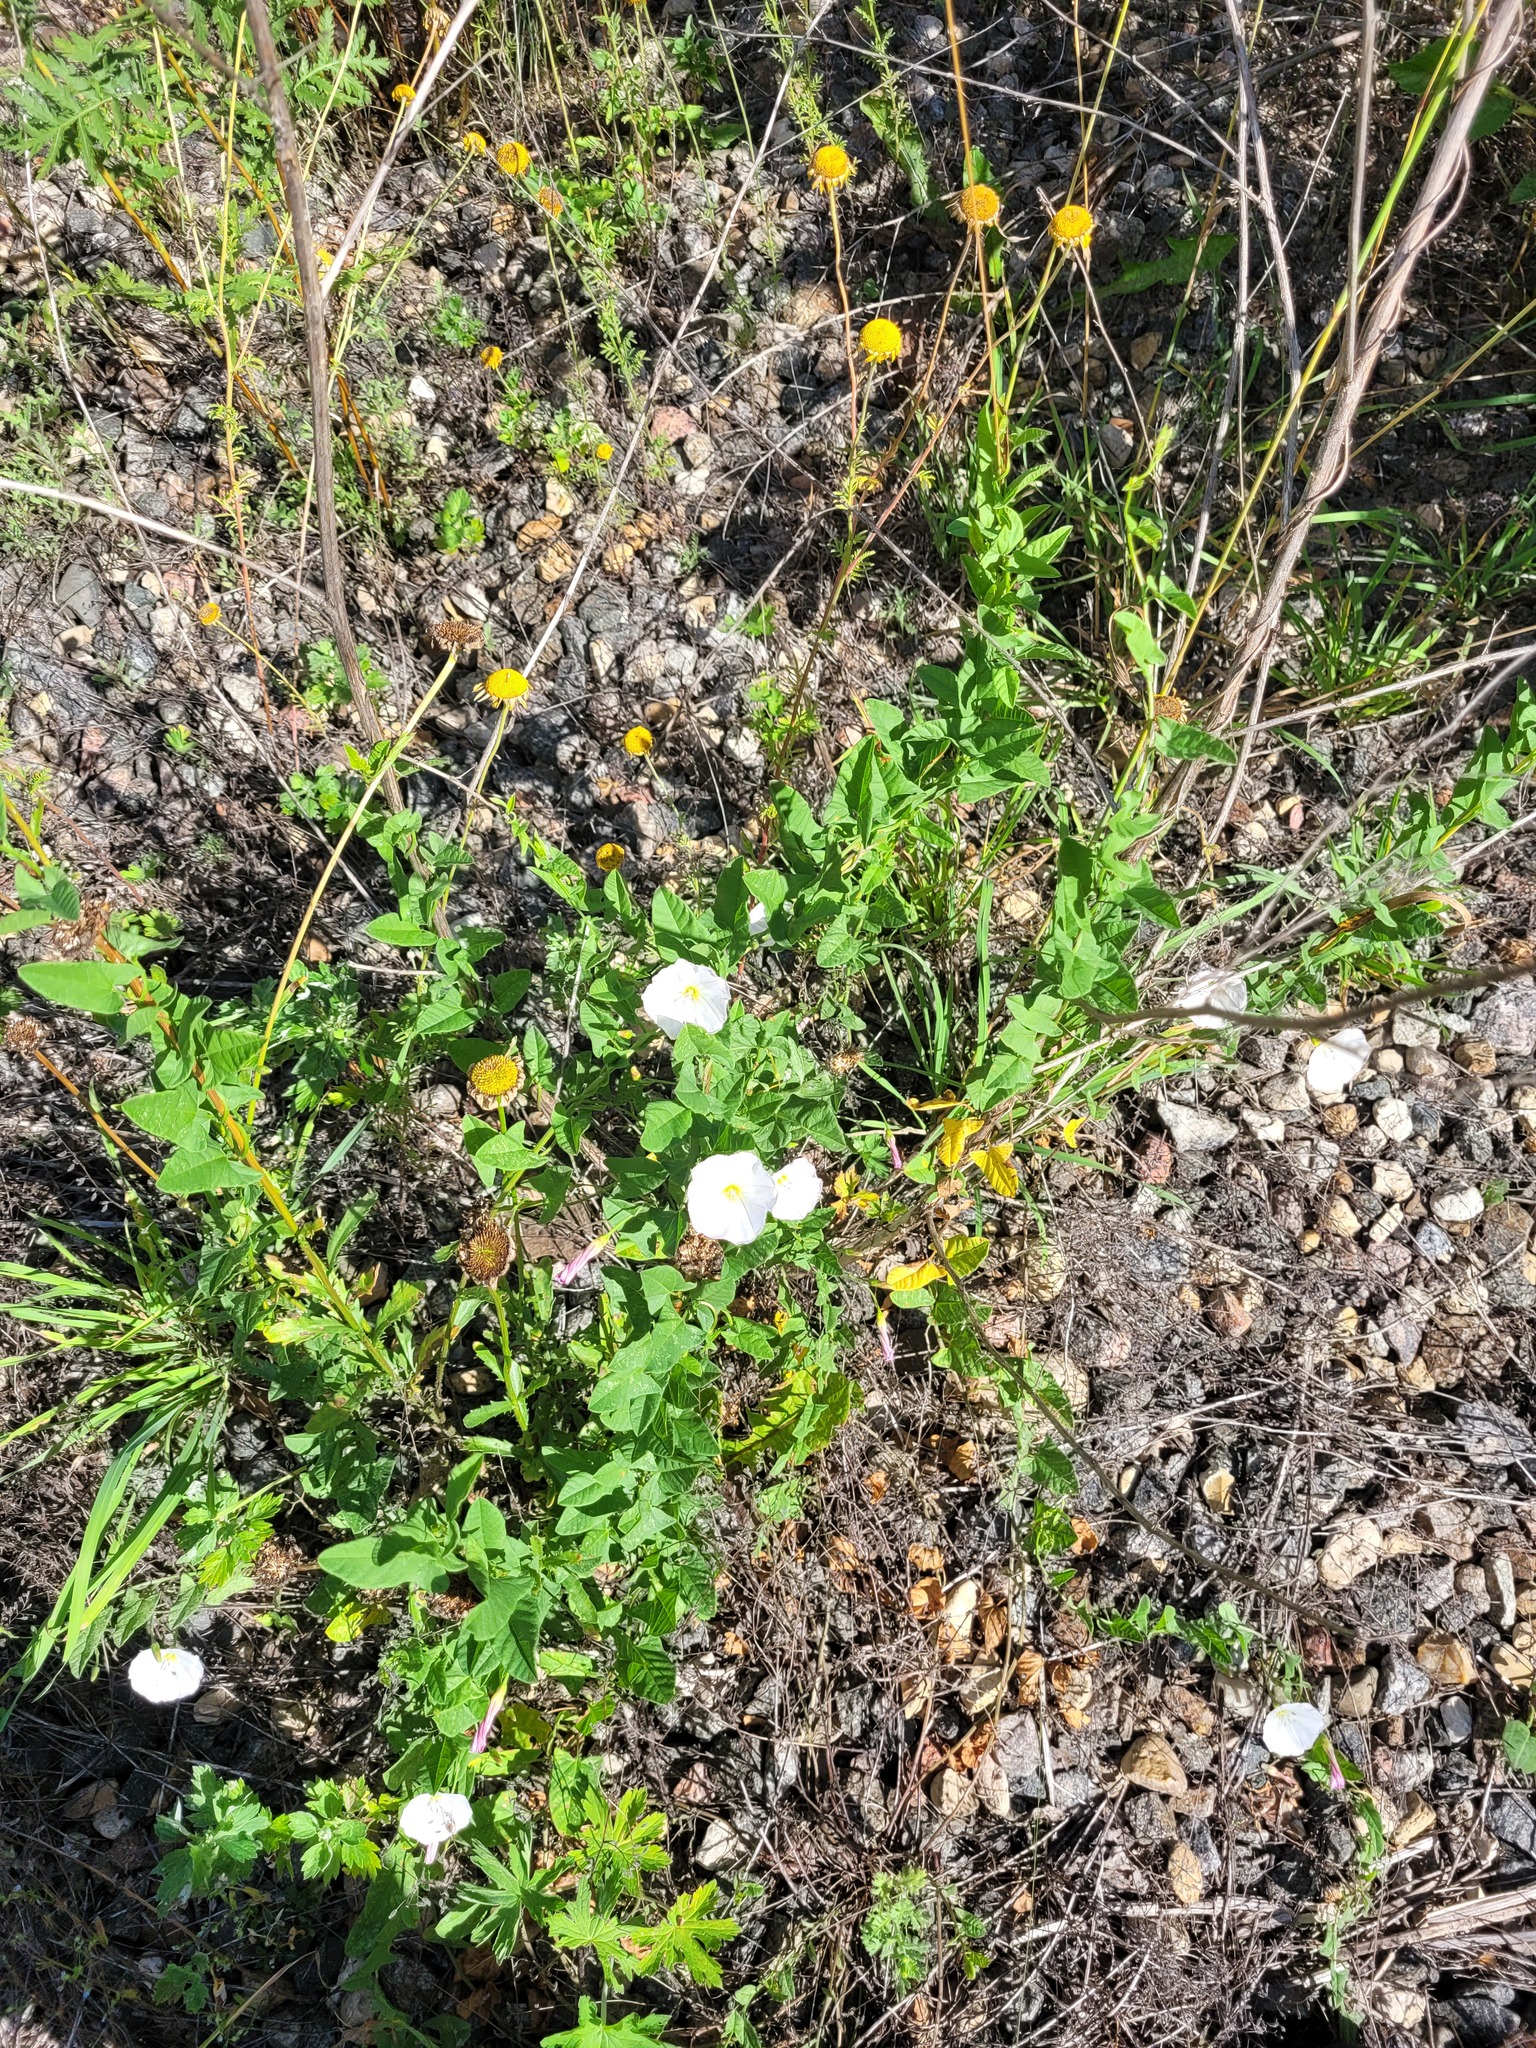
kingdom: Plantae
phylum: Tracheophyta
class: Magnoliopsida
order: Solanales
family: Convolvulaceae
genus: Convolvulus
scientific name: Convolvulus arvensis
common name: Field bindweed
